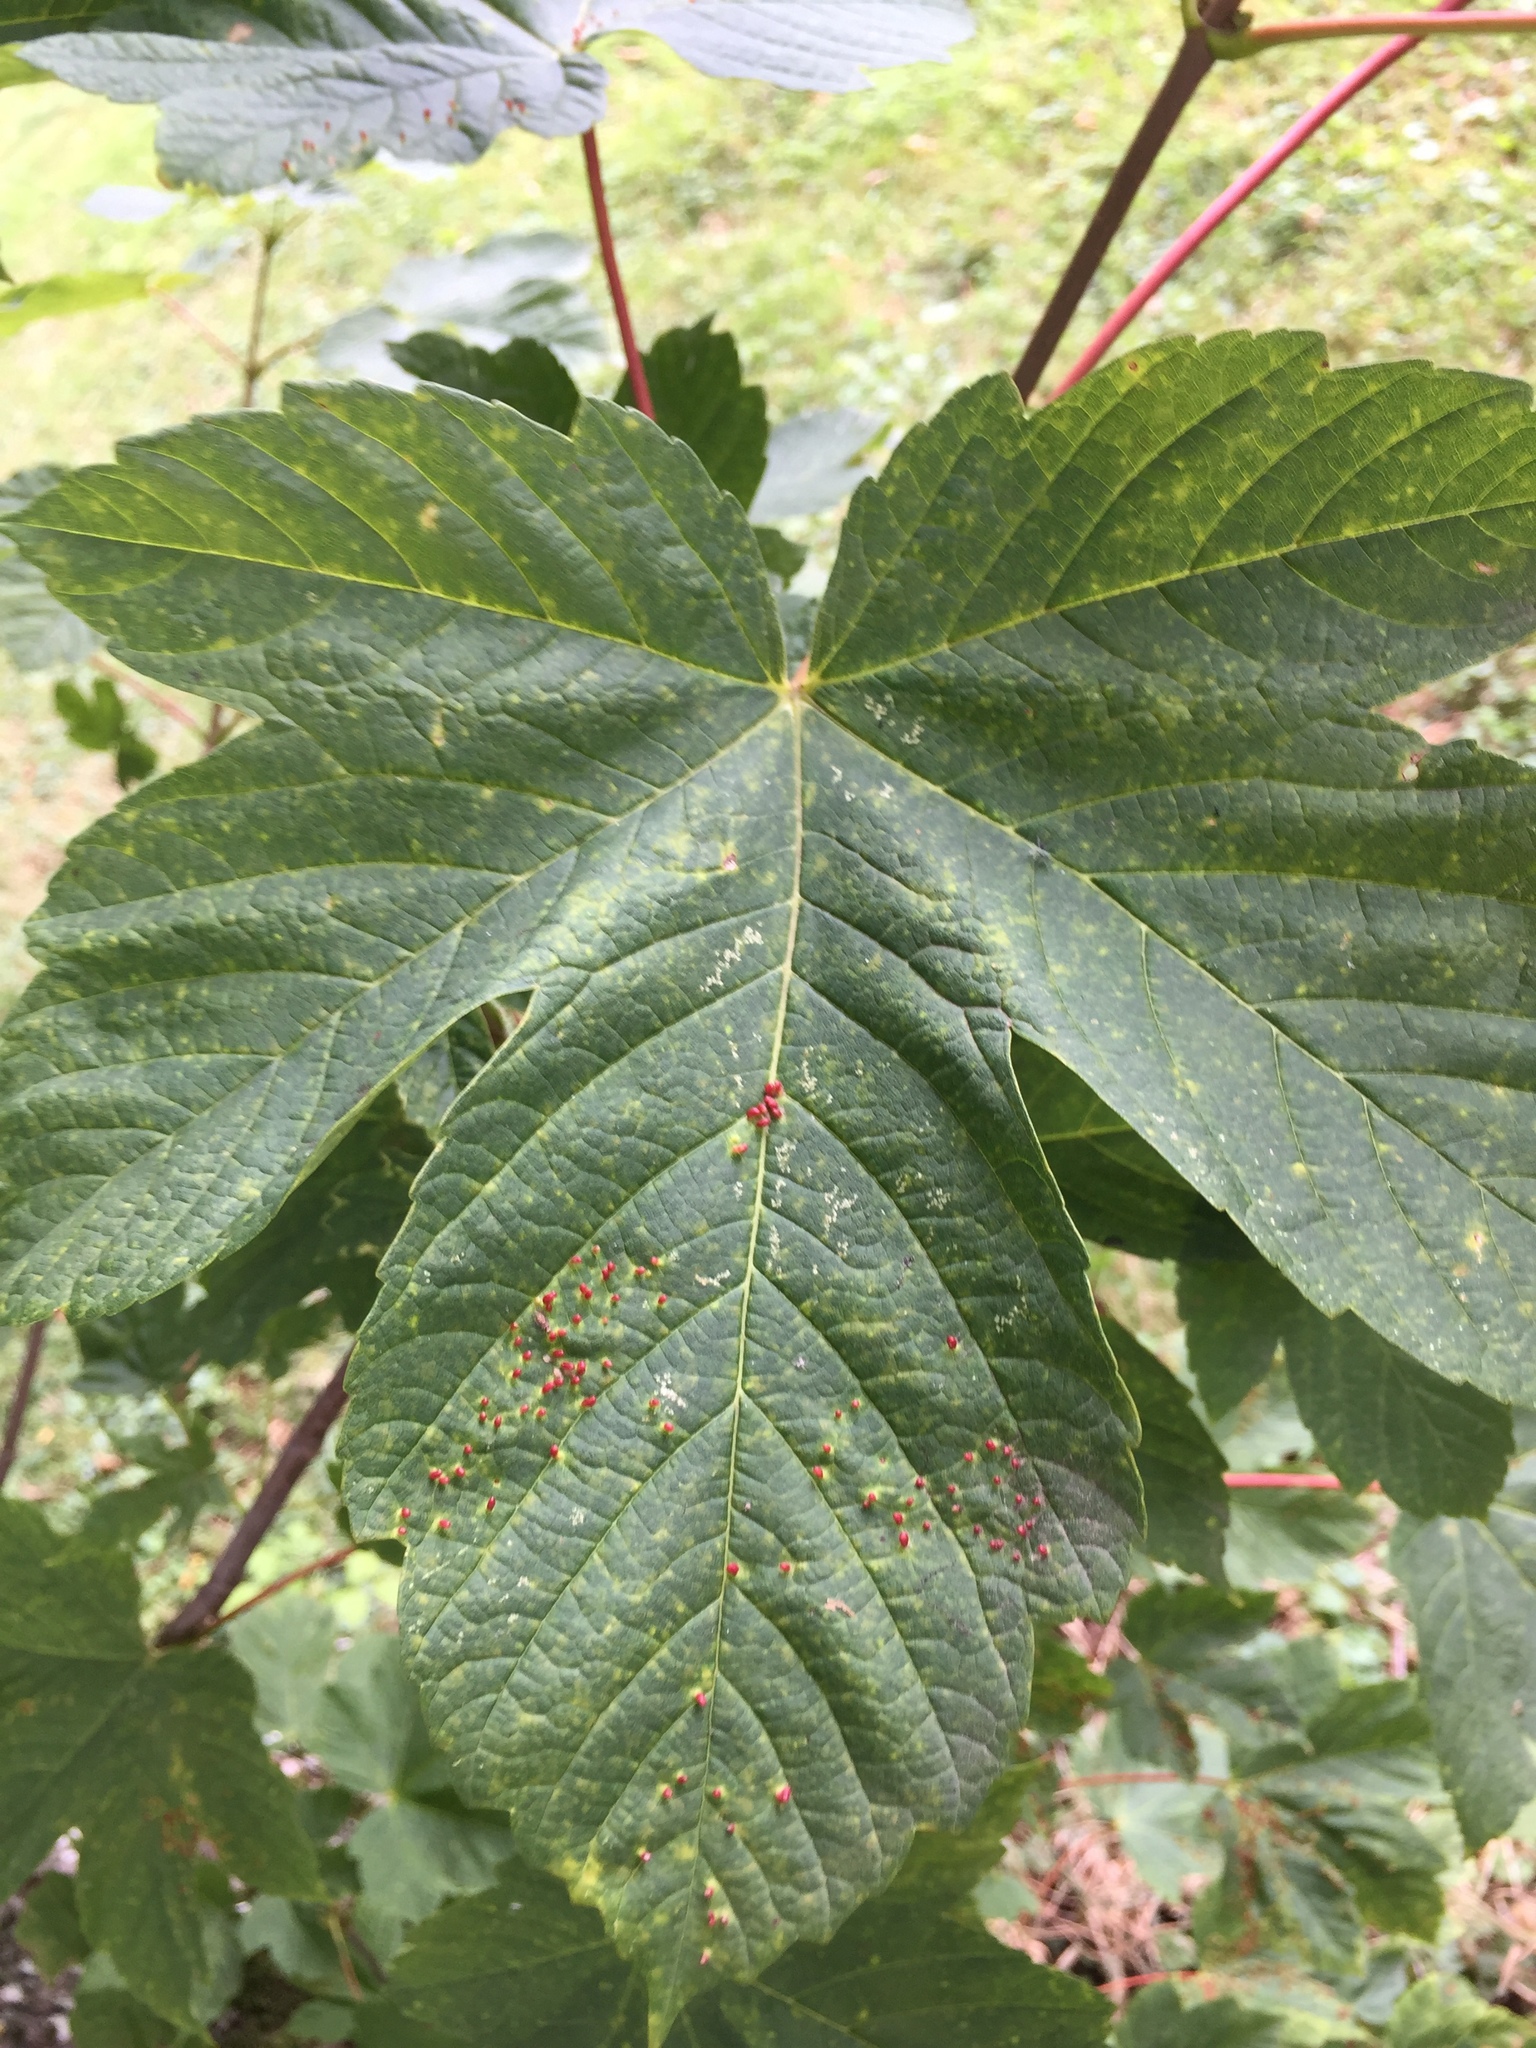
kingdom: Animalia
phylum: Arthropoda
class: Arachnida
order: Trombidiformes
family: Eriophyidae
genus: Aceria
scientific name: Aceria cephaloneus
